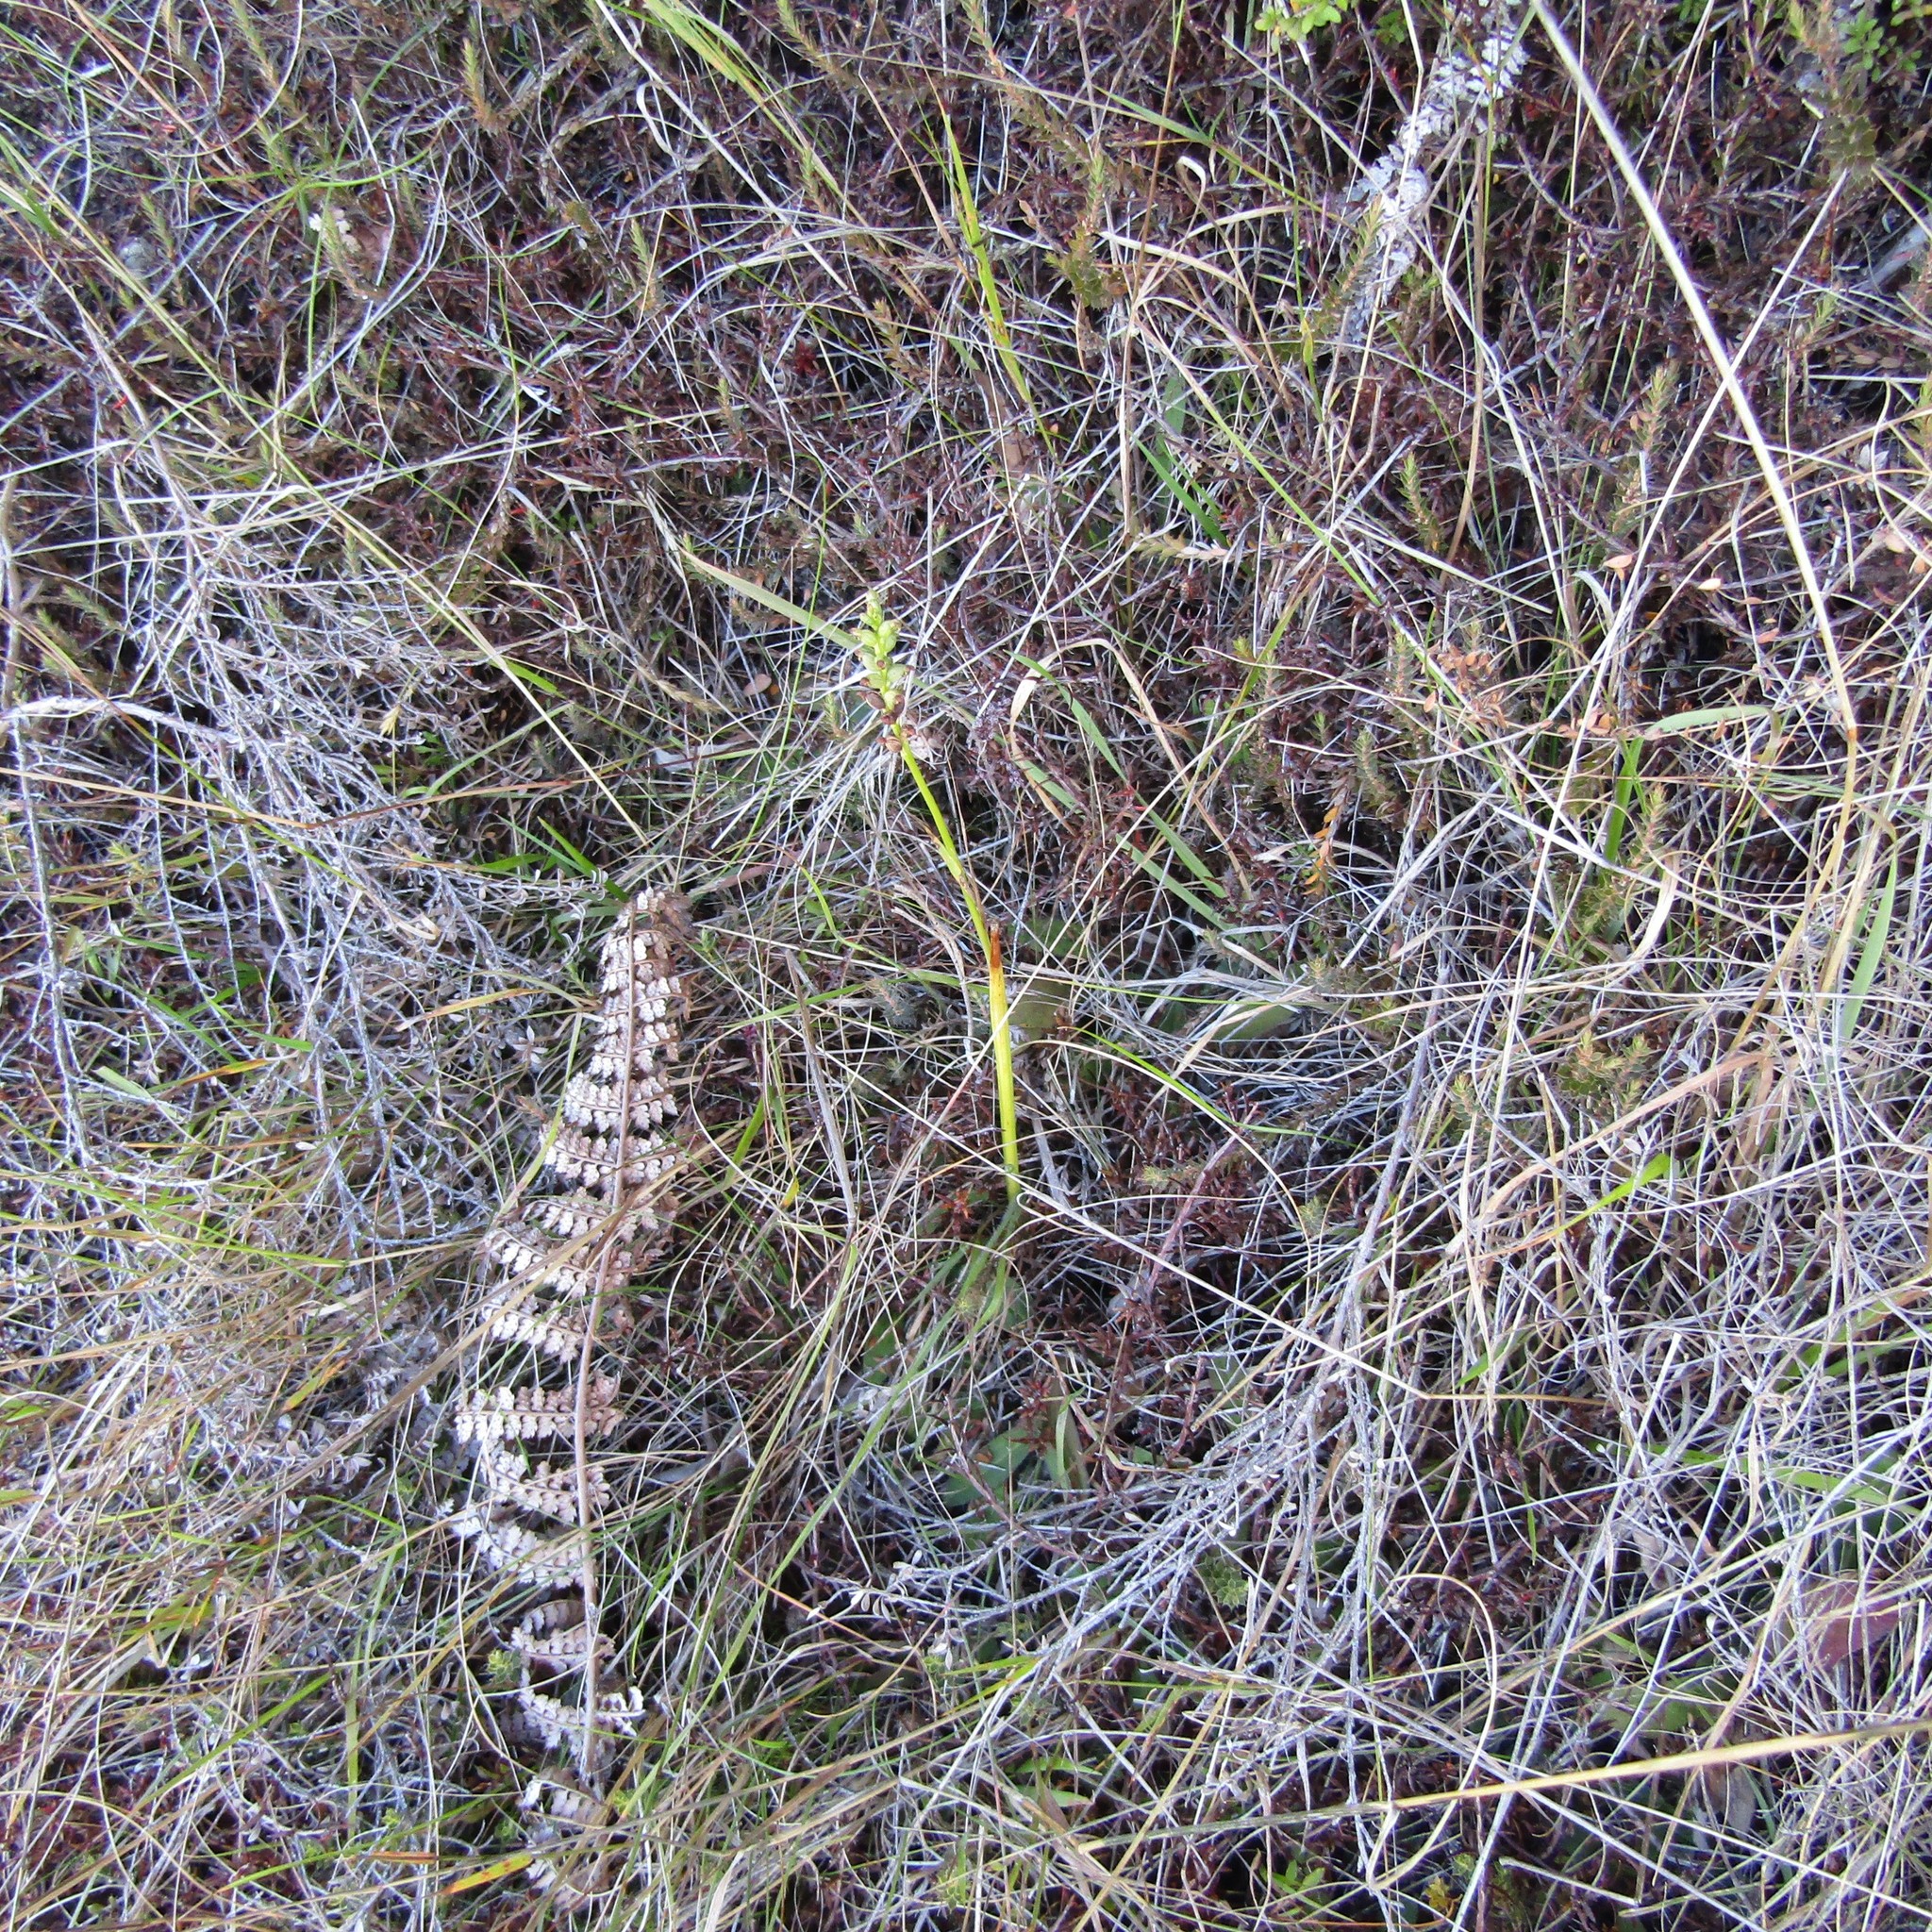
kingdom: Plantae
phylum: Tracheophyta
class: Liliopsida
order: Asparagales
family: Orchidaceae
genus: Microtis
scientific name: Microtis unifolia
